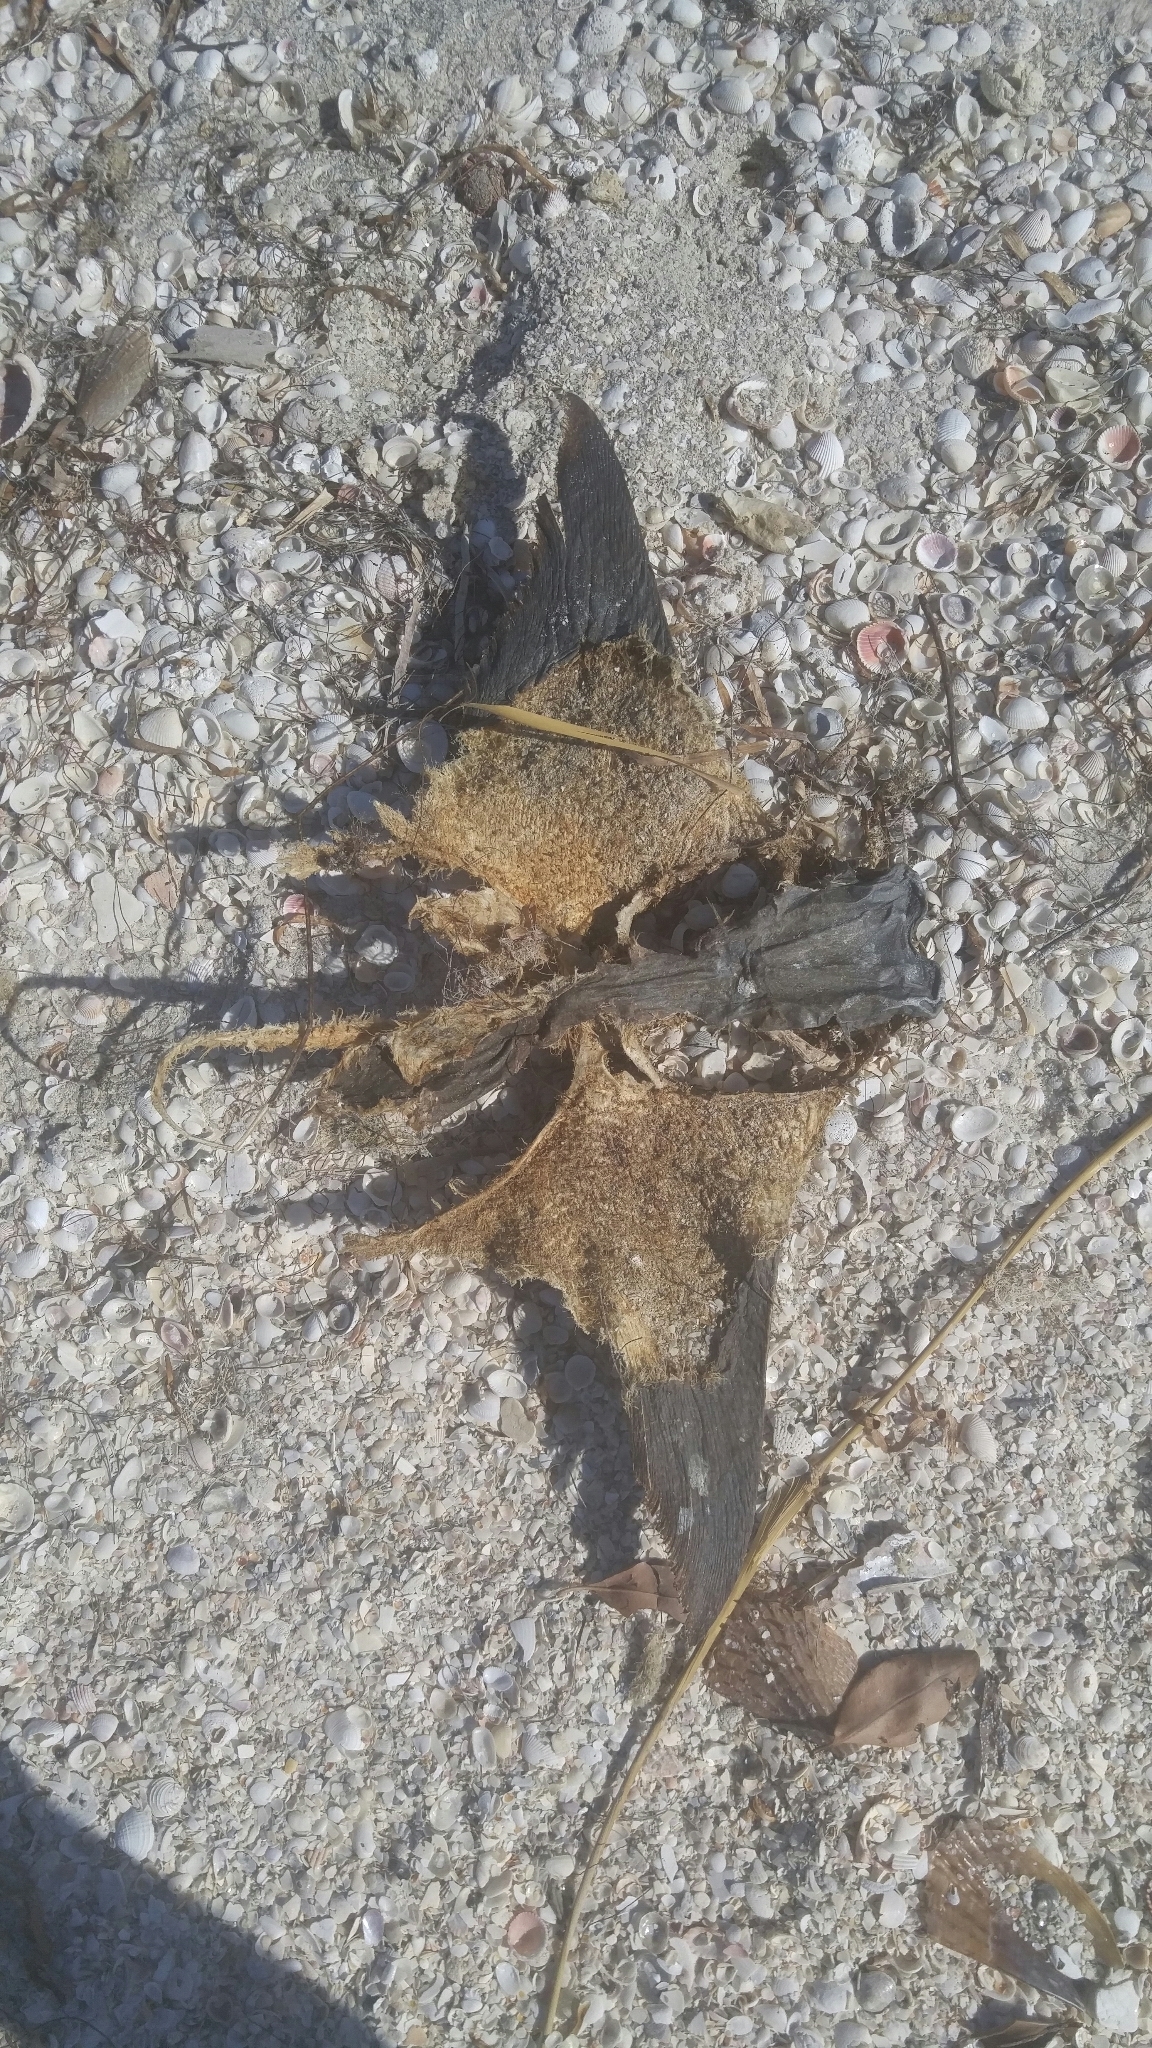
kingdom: Animalia
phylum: Chordata
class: Elasmobranchii
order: Myliobatiformes
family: Myliobatidae
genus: Rhinoptera
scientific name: Rhinoptera bonasus
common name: Cownose ray
